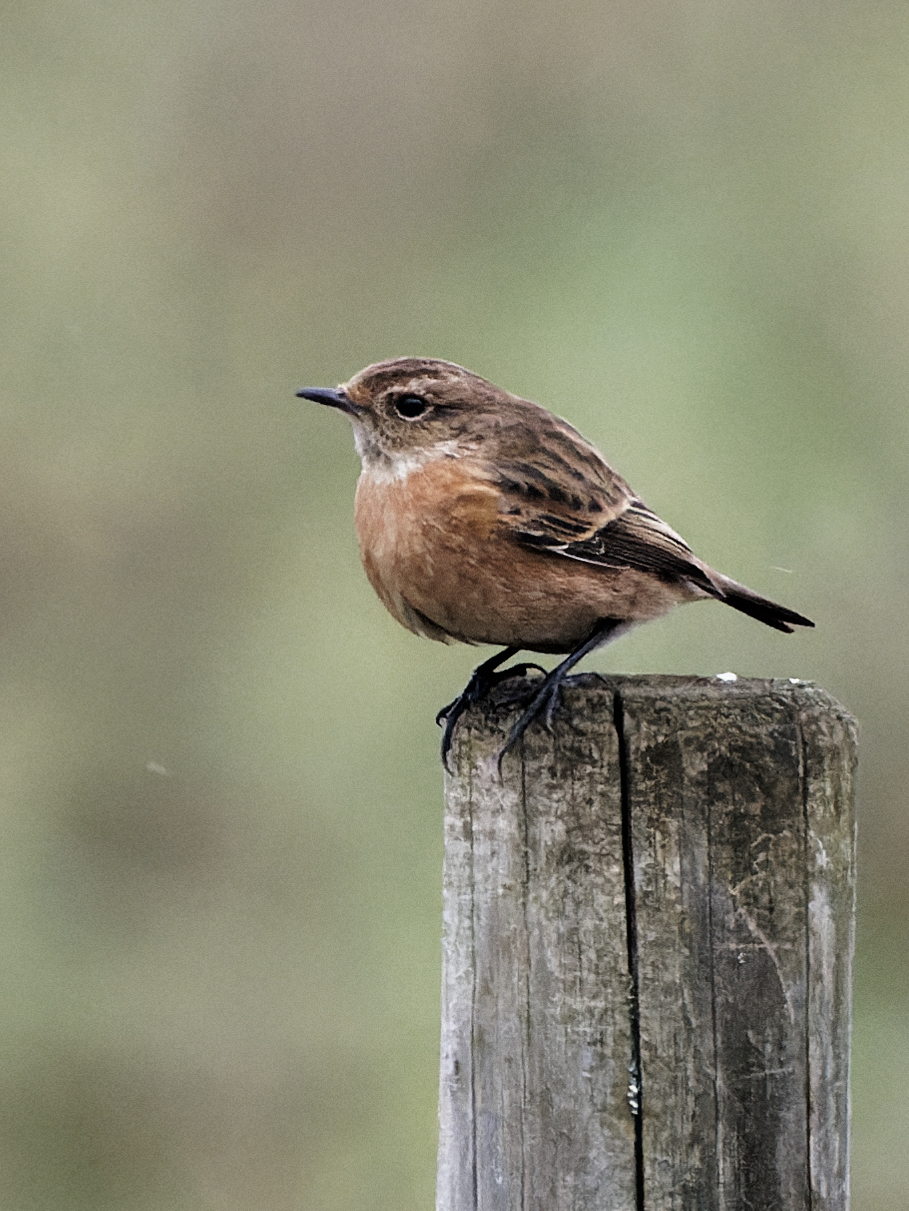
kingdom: Animalia
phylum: Chordata
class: Aves
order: Passeriformes
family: Muscicapidae
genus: Saxicola
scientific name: Saxicola rubicola
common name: European stonechat
